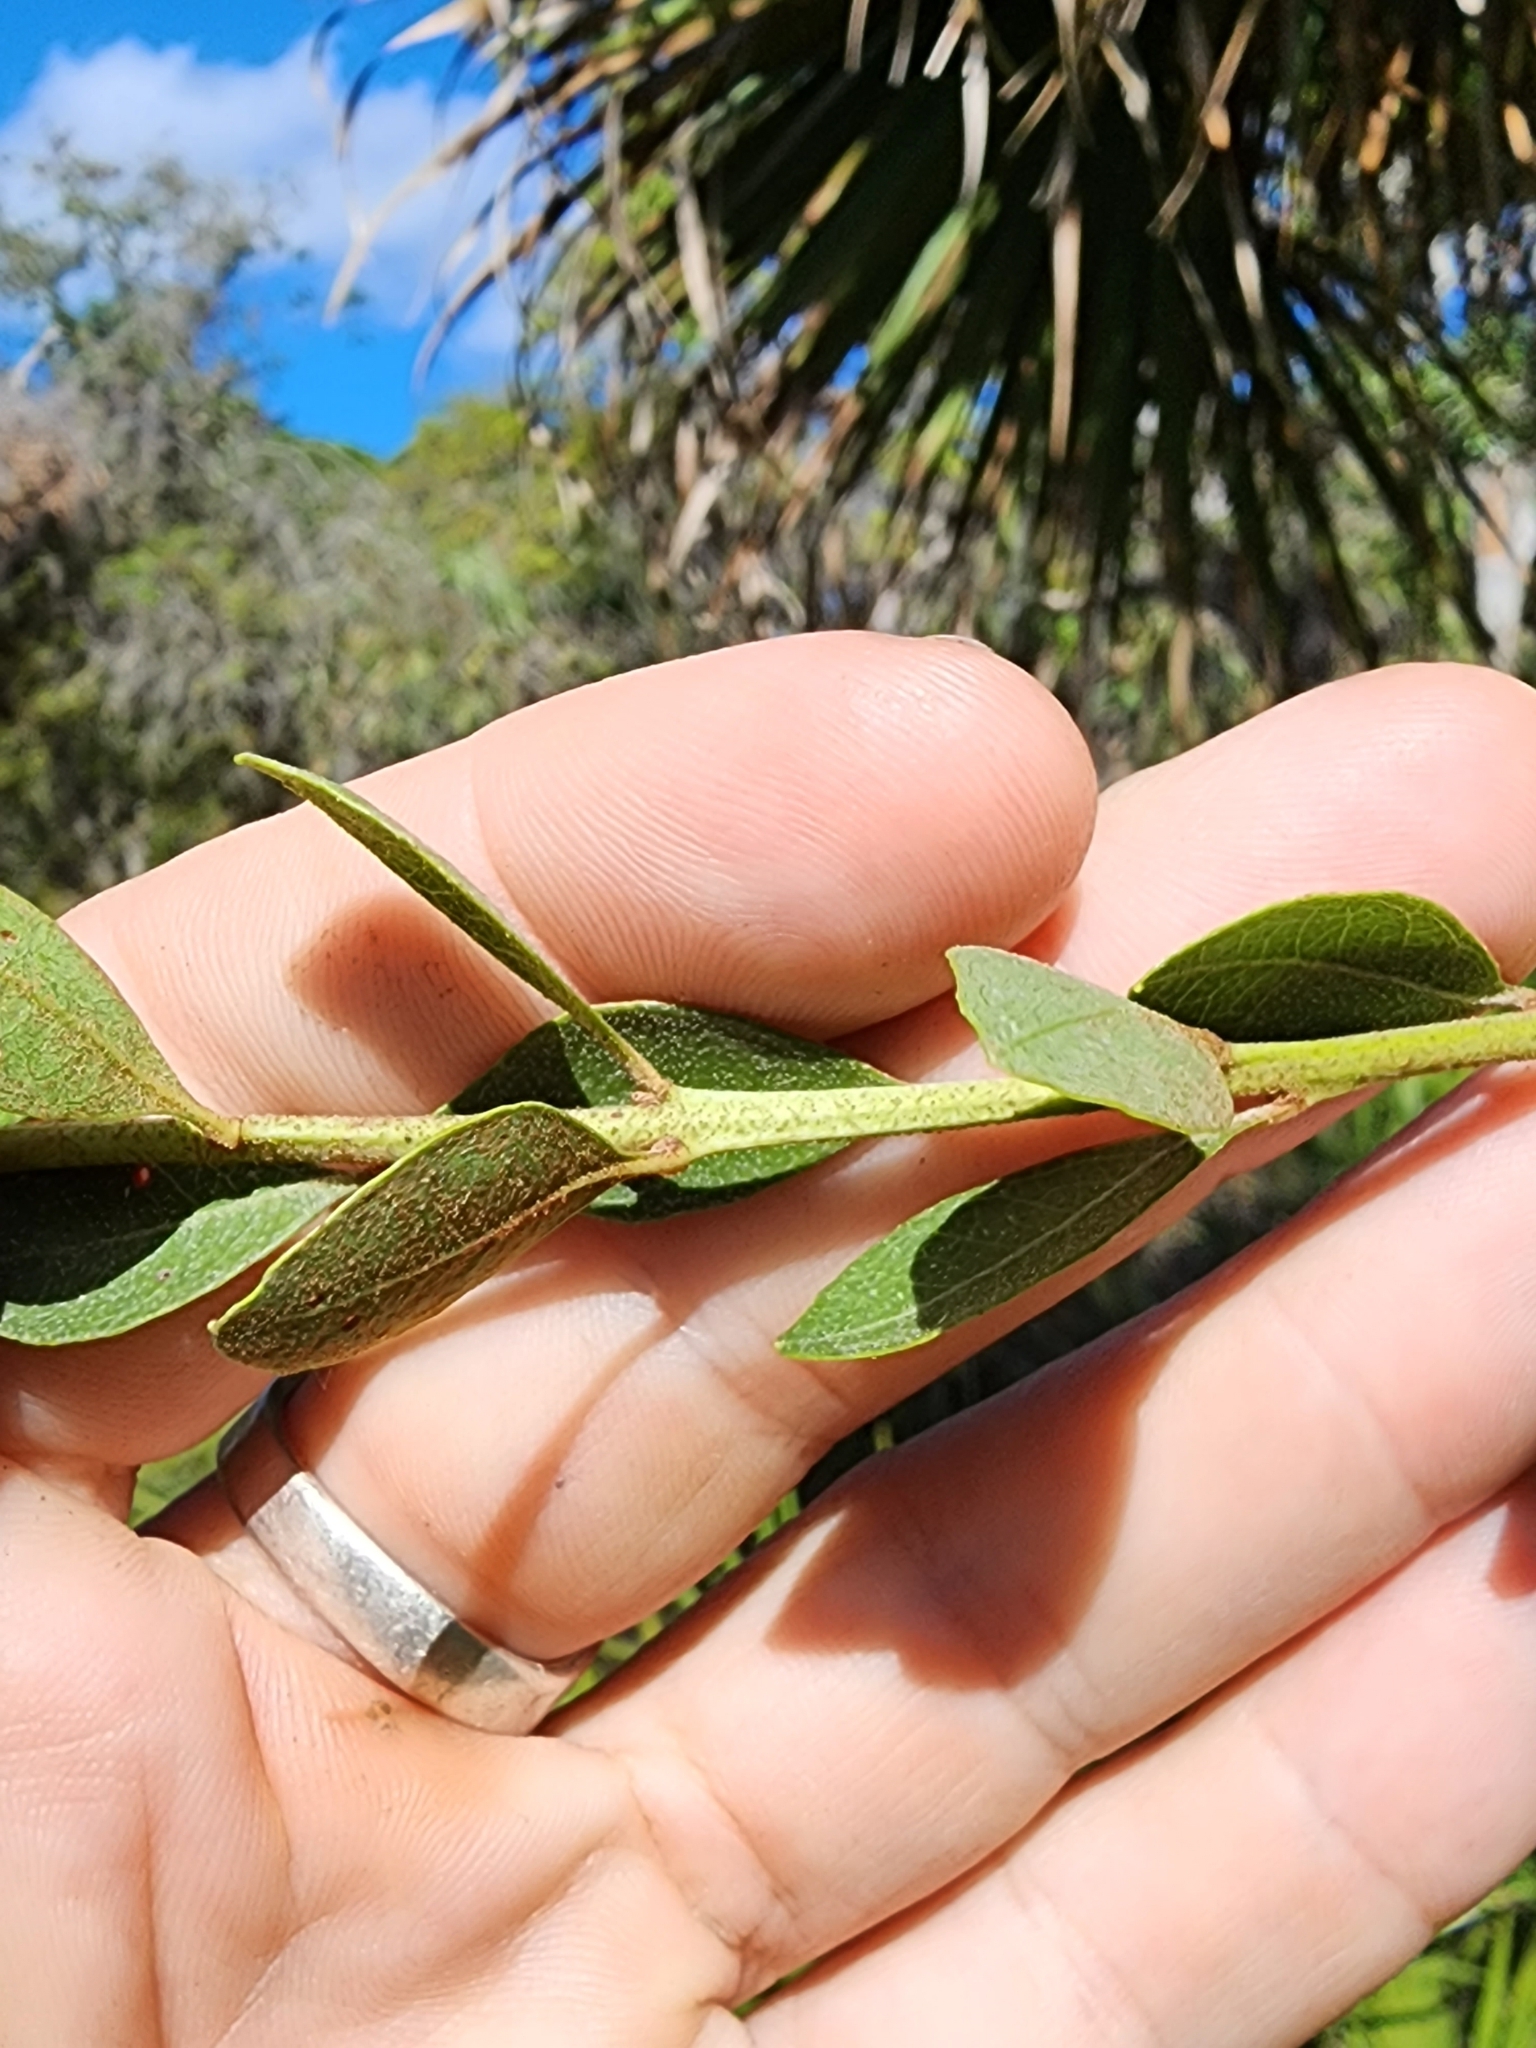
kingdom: Plantae
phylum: Tracheophyta
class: Magnoliopsida
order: Ericales
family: Ericaceae
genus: Lyonia
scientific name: Lyonia fruticosa
